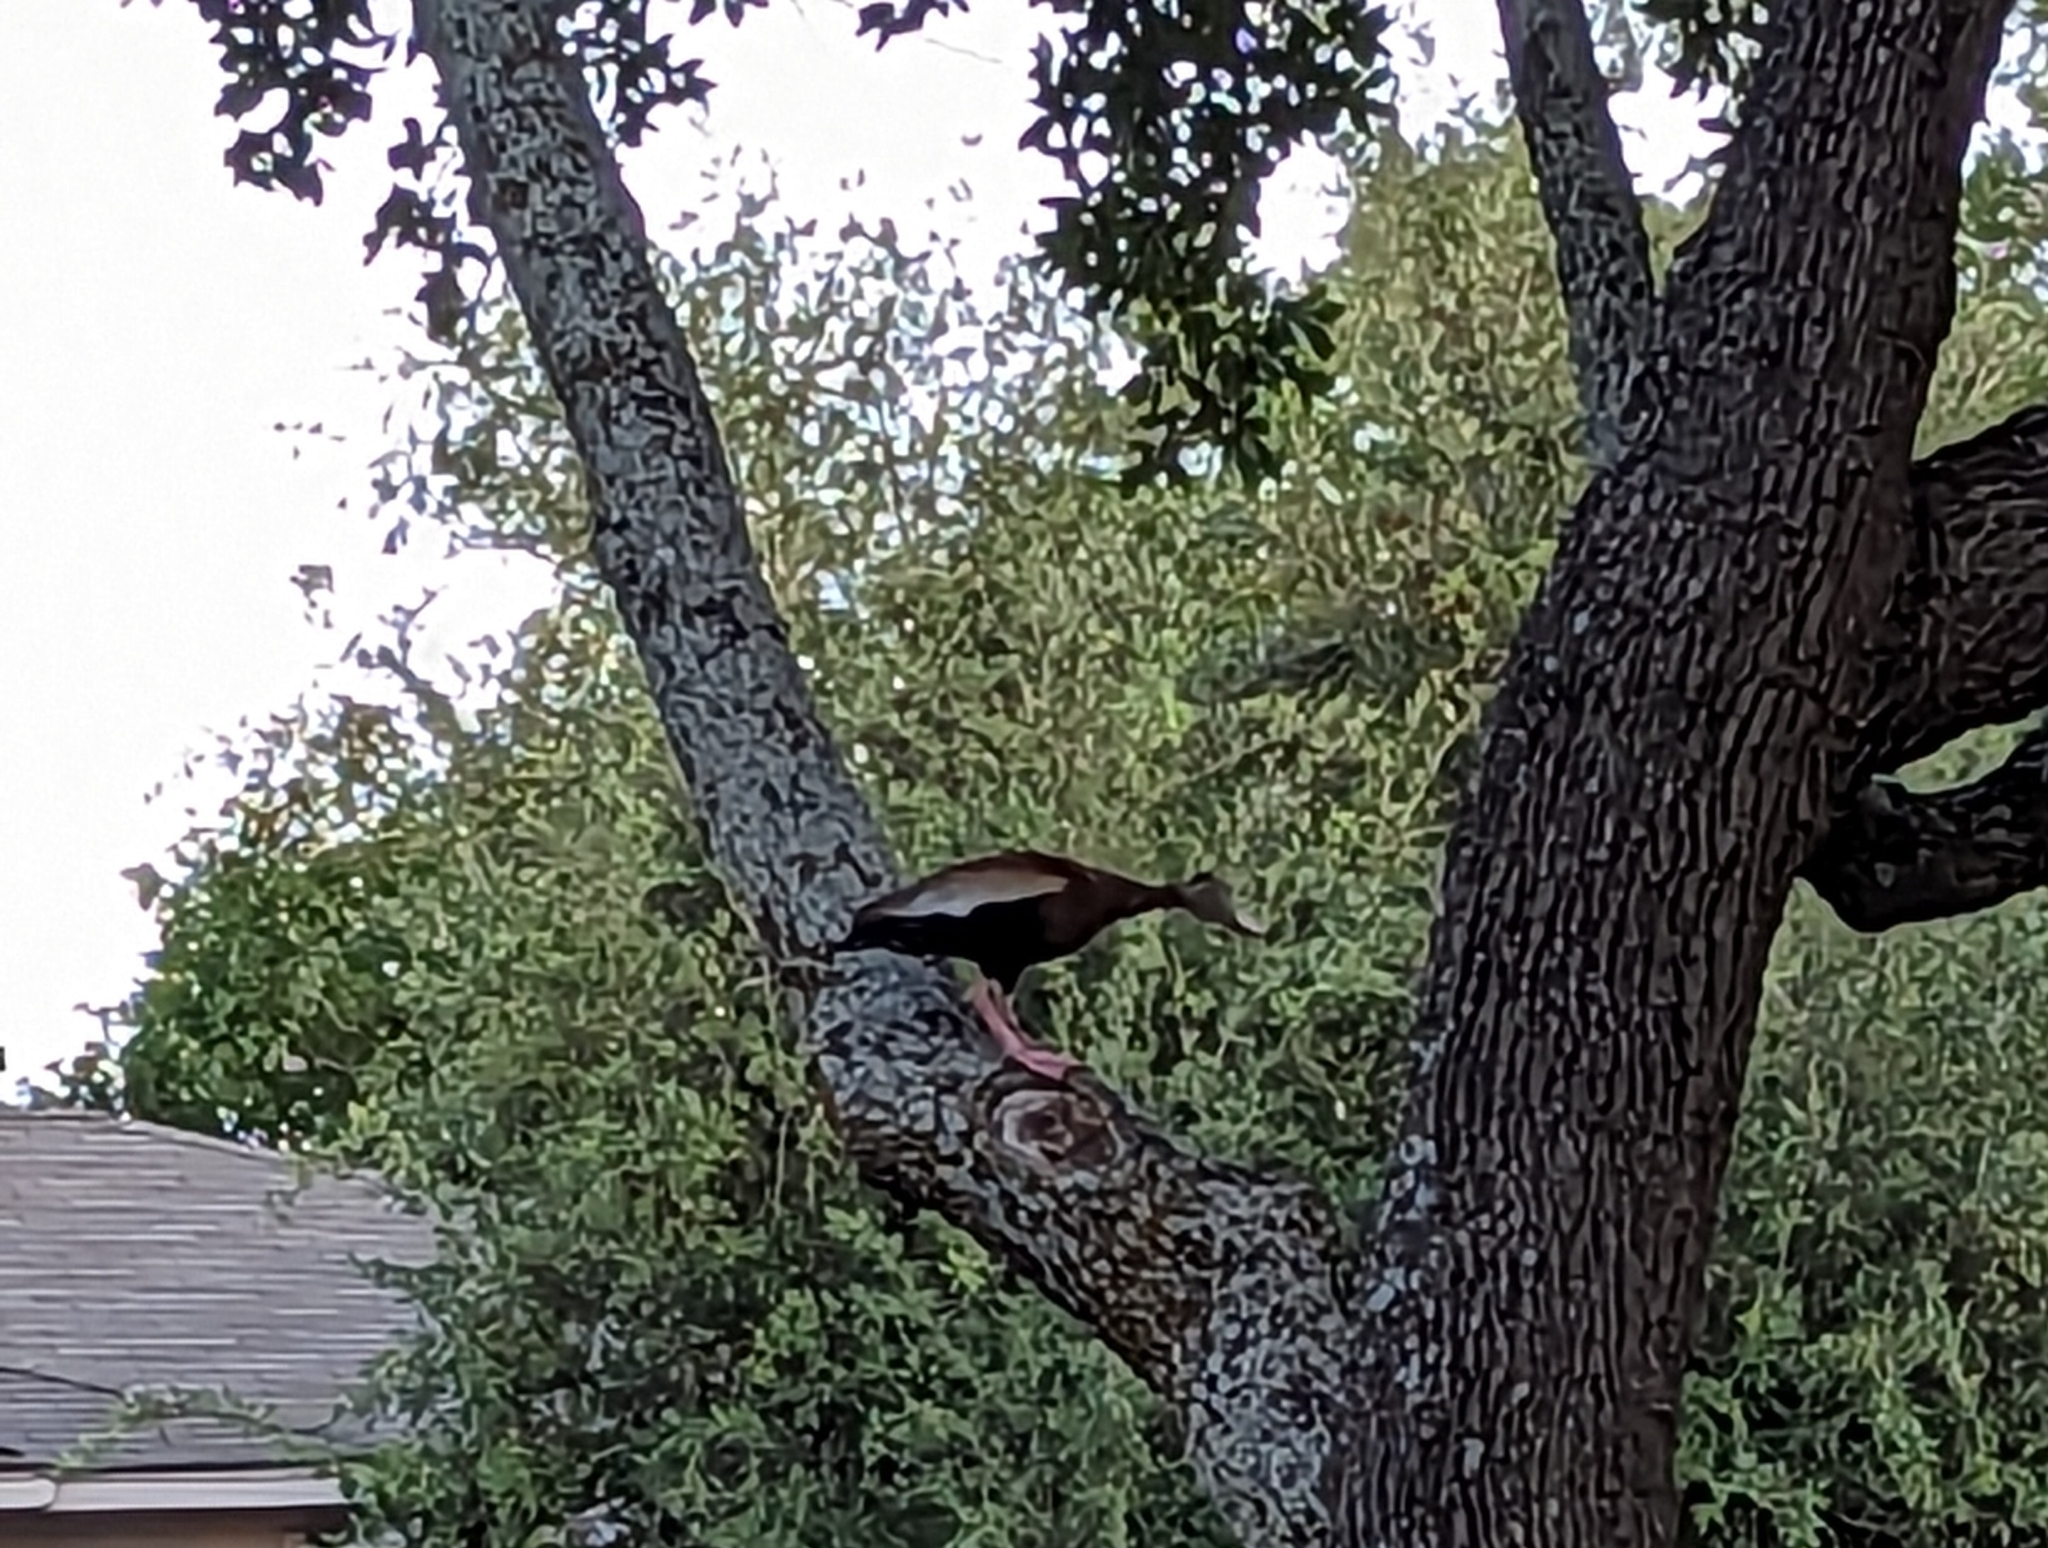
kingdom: Animalia
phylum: Chordata
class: Aves
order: Anseriformes
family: Anatidae
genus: Dendrocygna
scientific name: Dendrocygna autumnalis
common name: Black-bellied whistling duck
